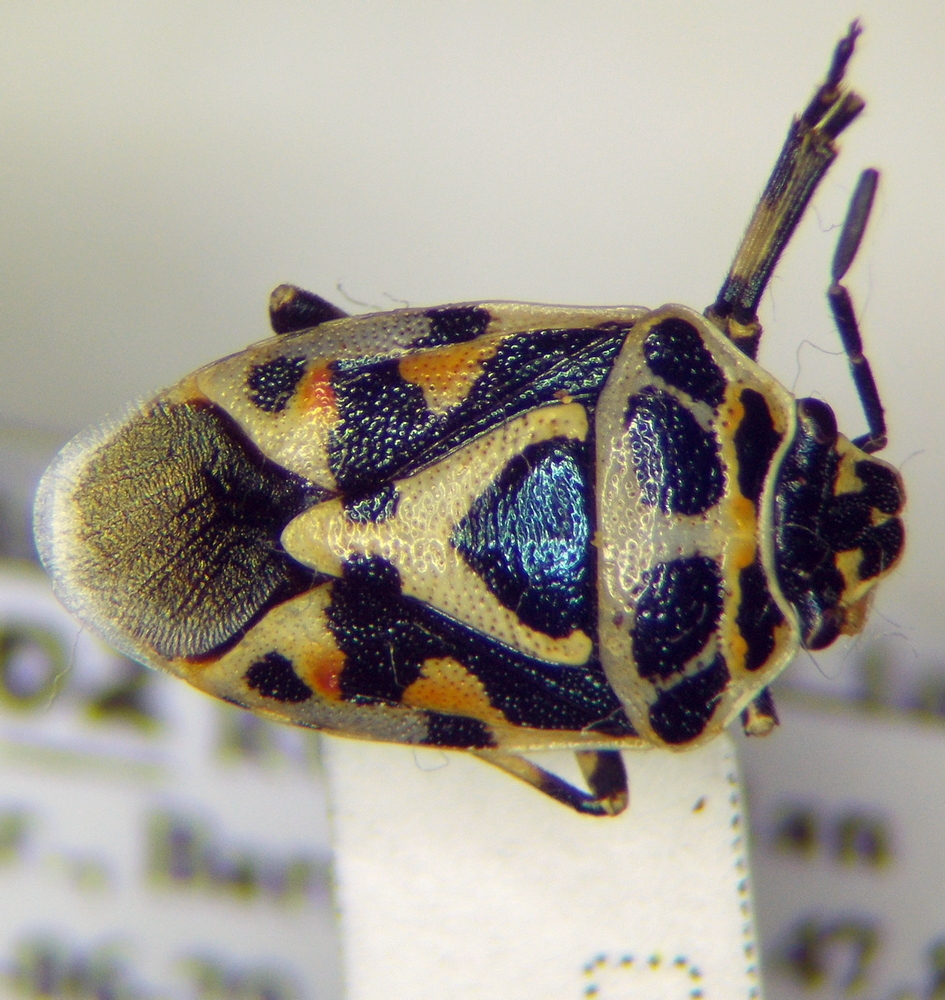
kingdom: Animalia
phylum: Arthropoda
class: Insecta
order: Hemiptera
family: Pentatomidae
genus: Eurydema
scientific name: Eurydema ornata
